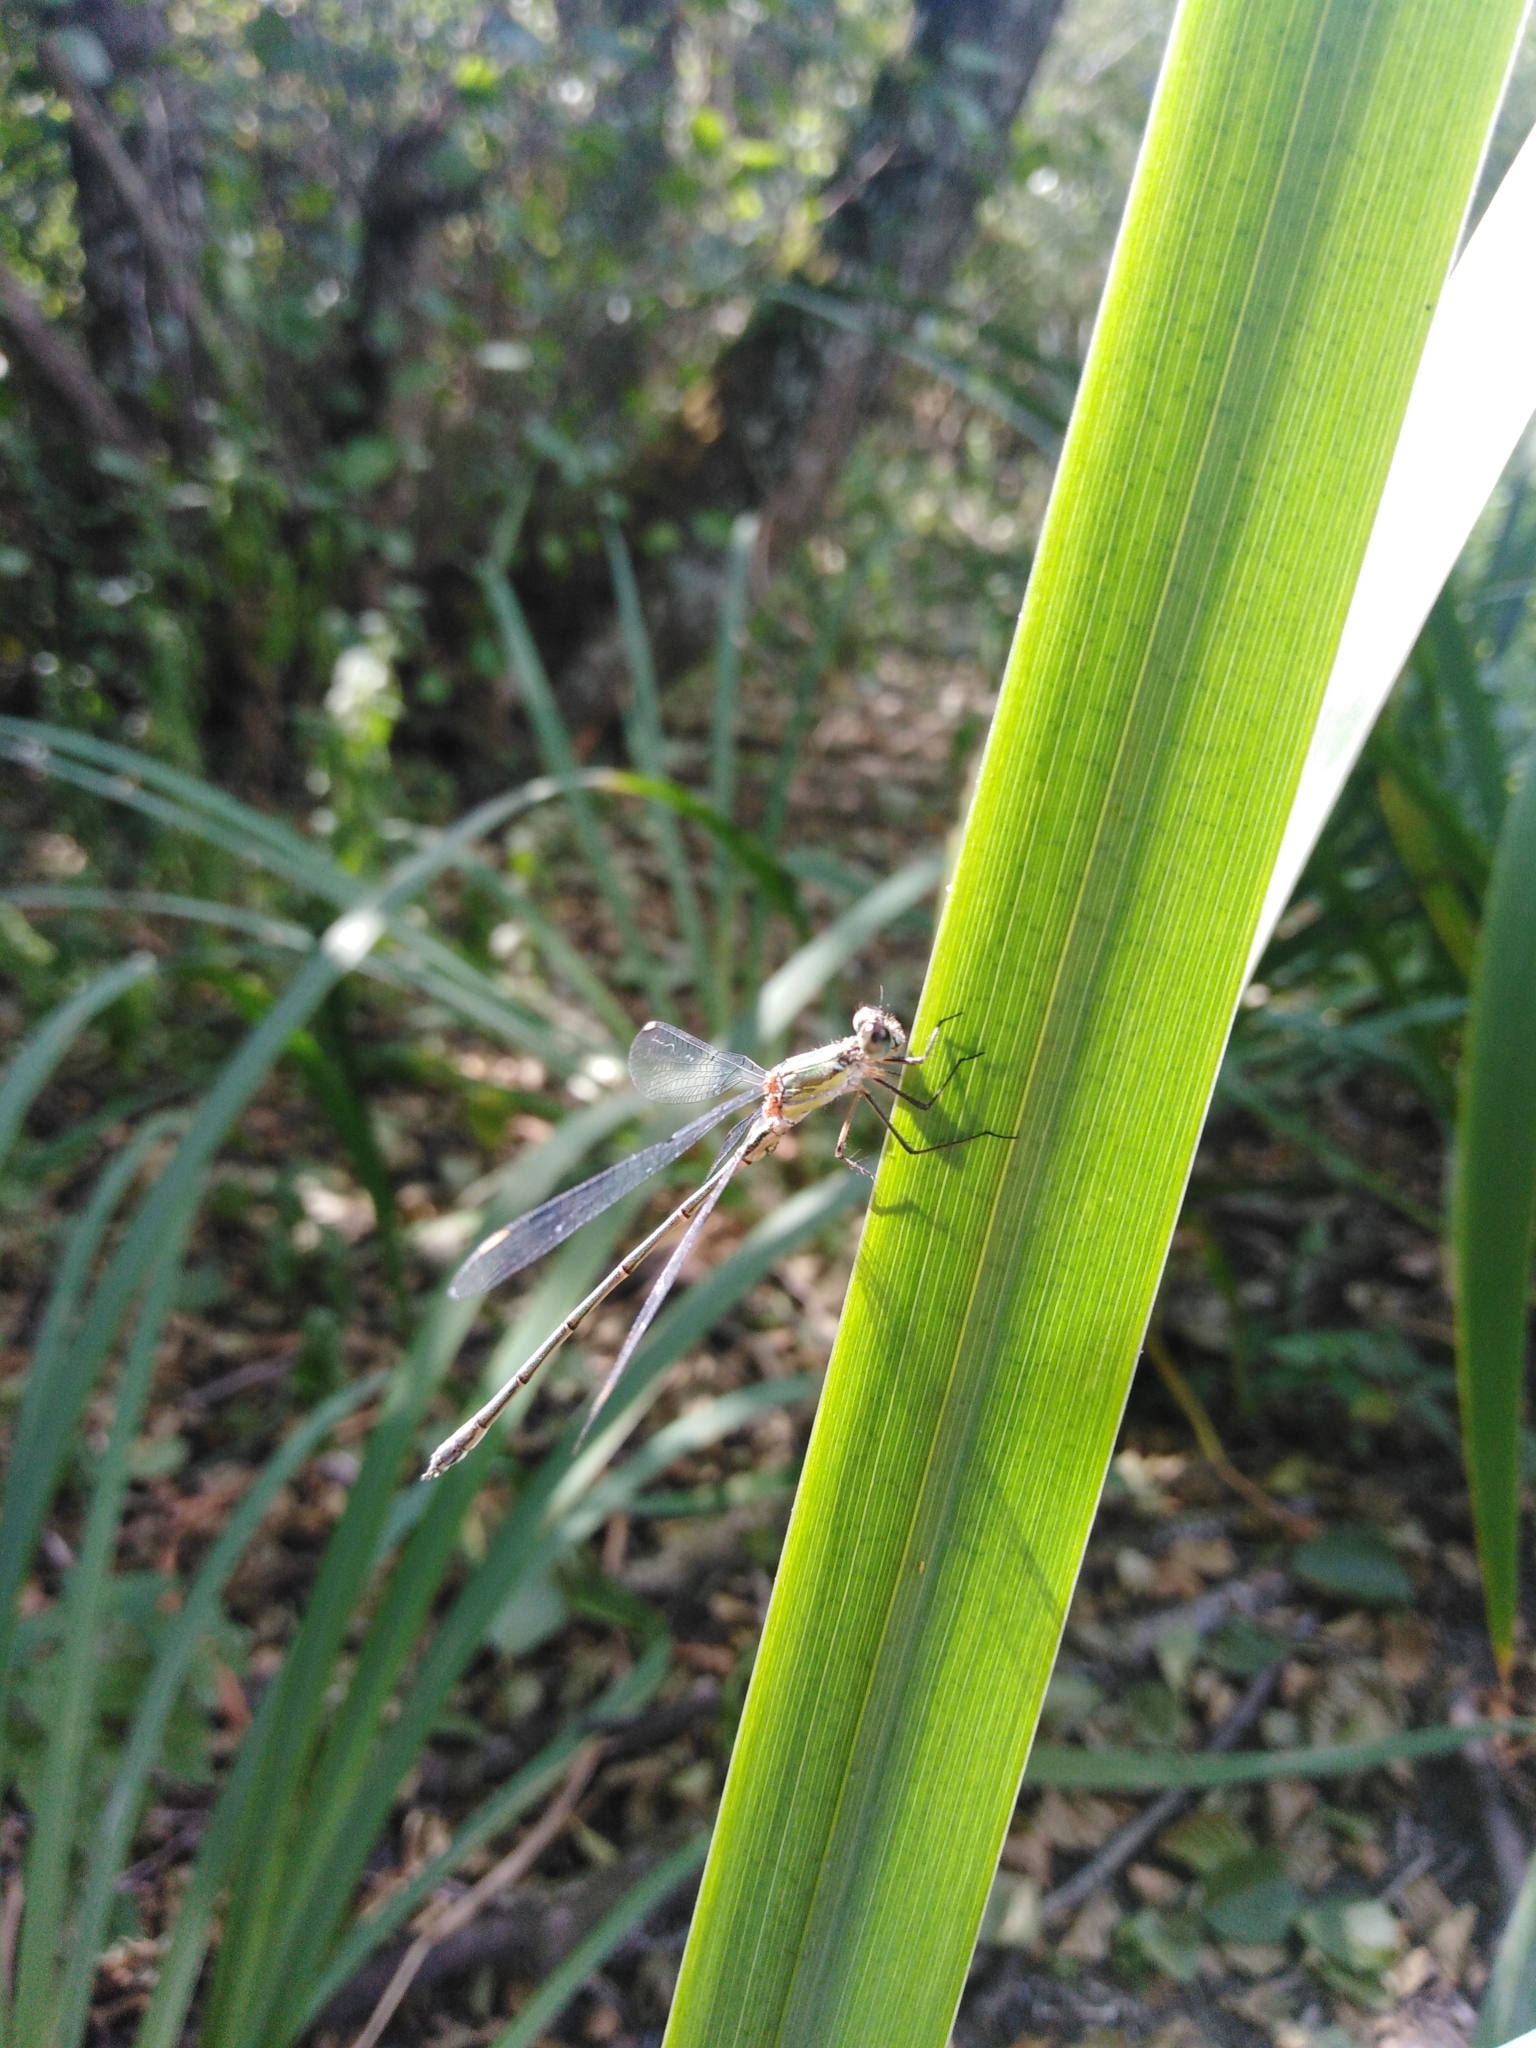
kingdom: Animalia
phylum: Arthropoda
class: Insecta
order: Odonata
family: Lestidae
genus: Chalcolestes
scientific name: Chalcolestes viridis
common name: Green emerald damselfly
